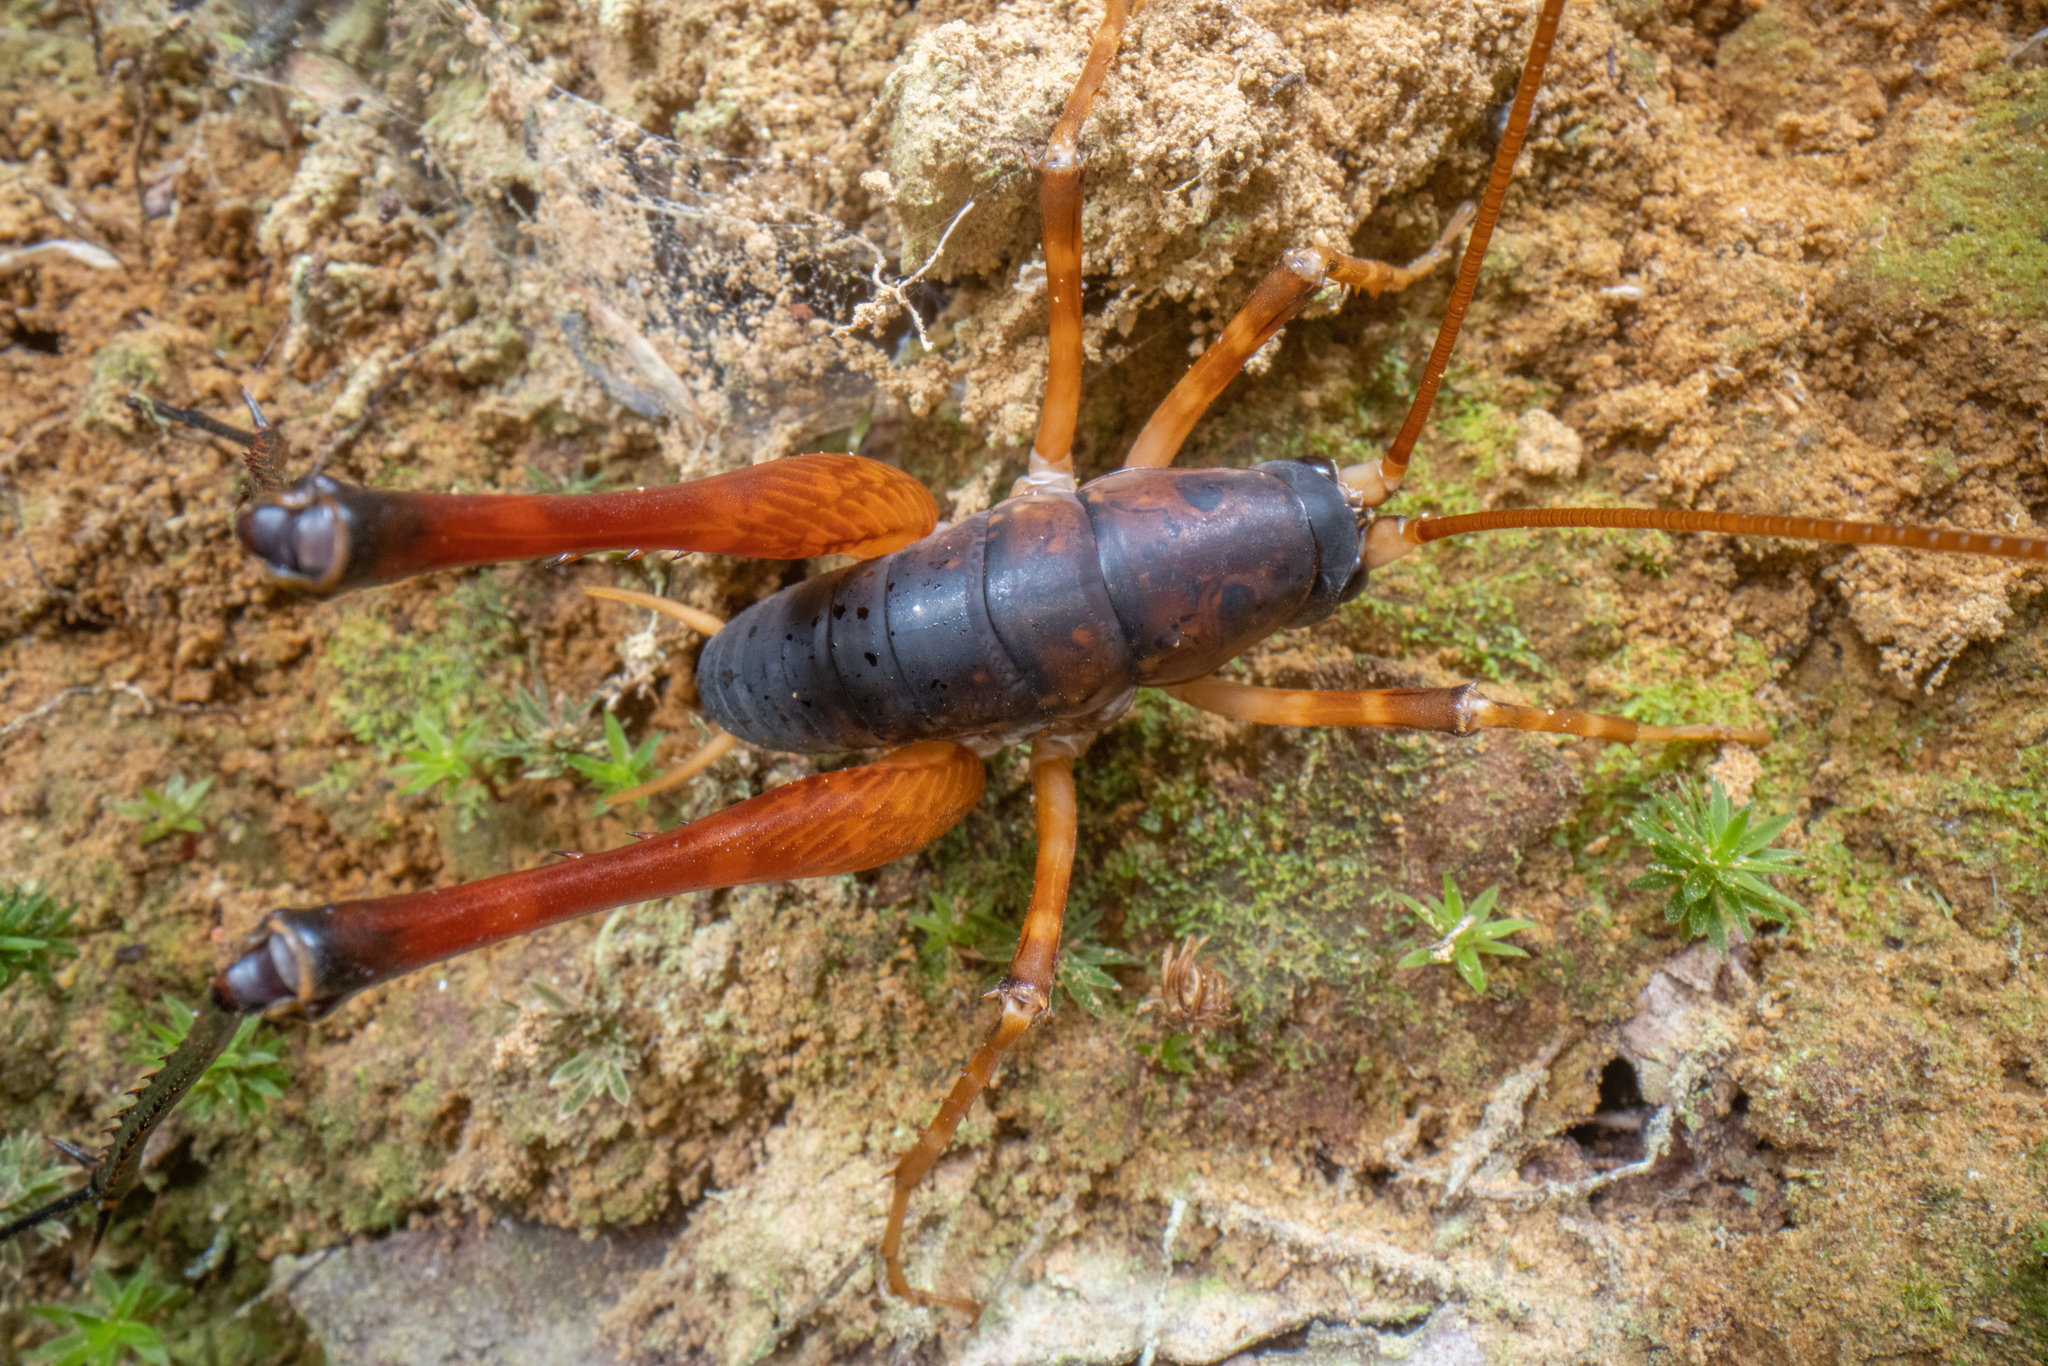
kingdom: Animalia
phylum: Arthropoda
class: Insecta
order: Orthoptera
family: Rhaphidophoridae
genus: Pachyrhamma
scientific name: Pachyrhamma longicauda
